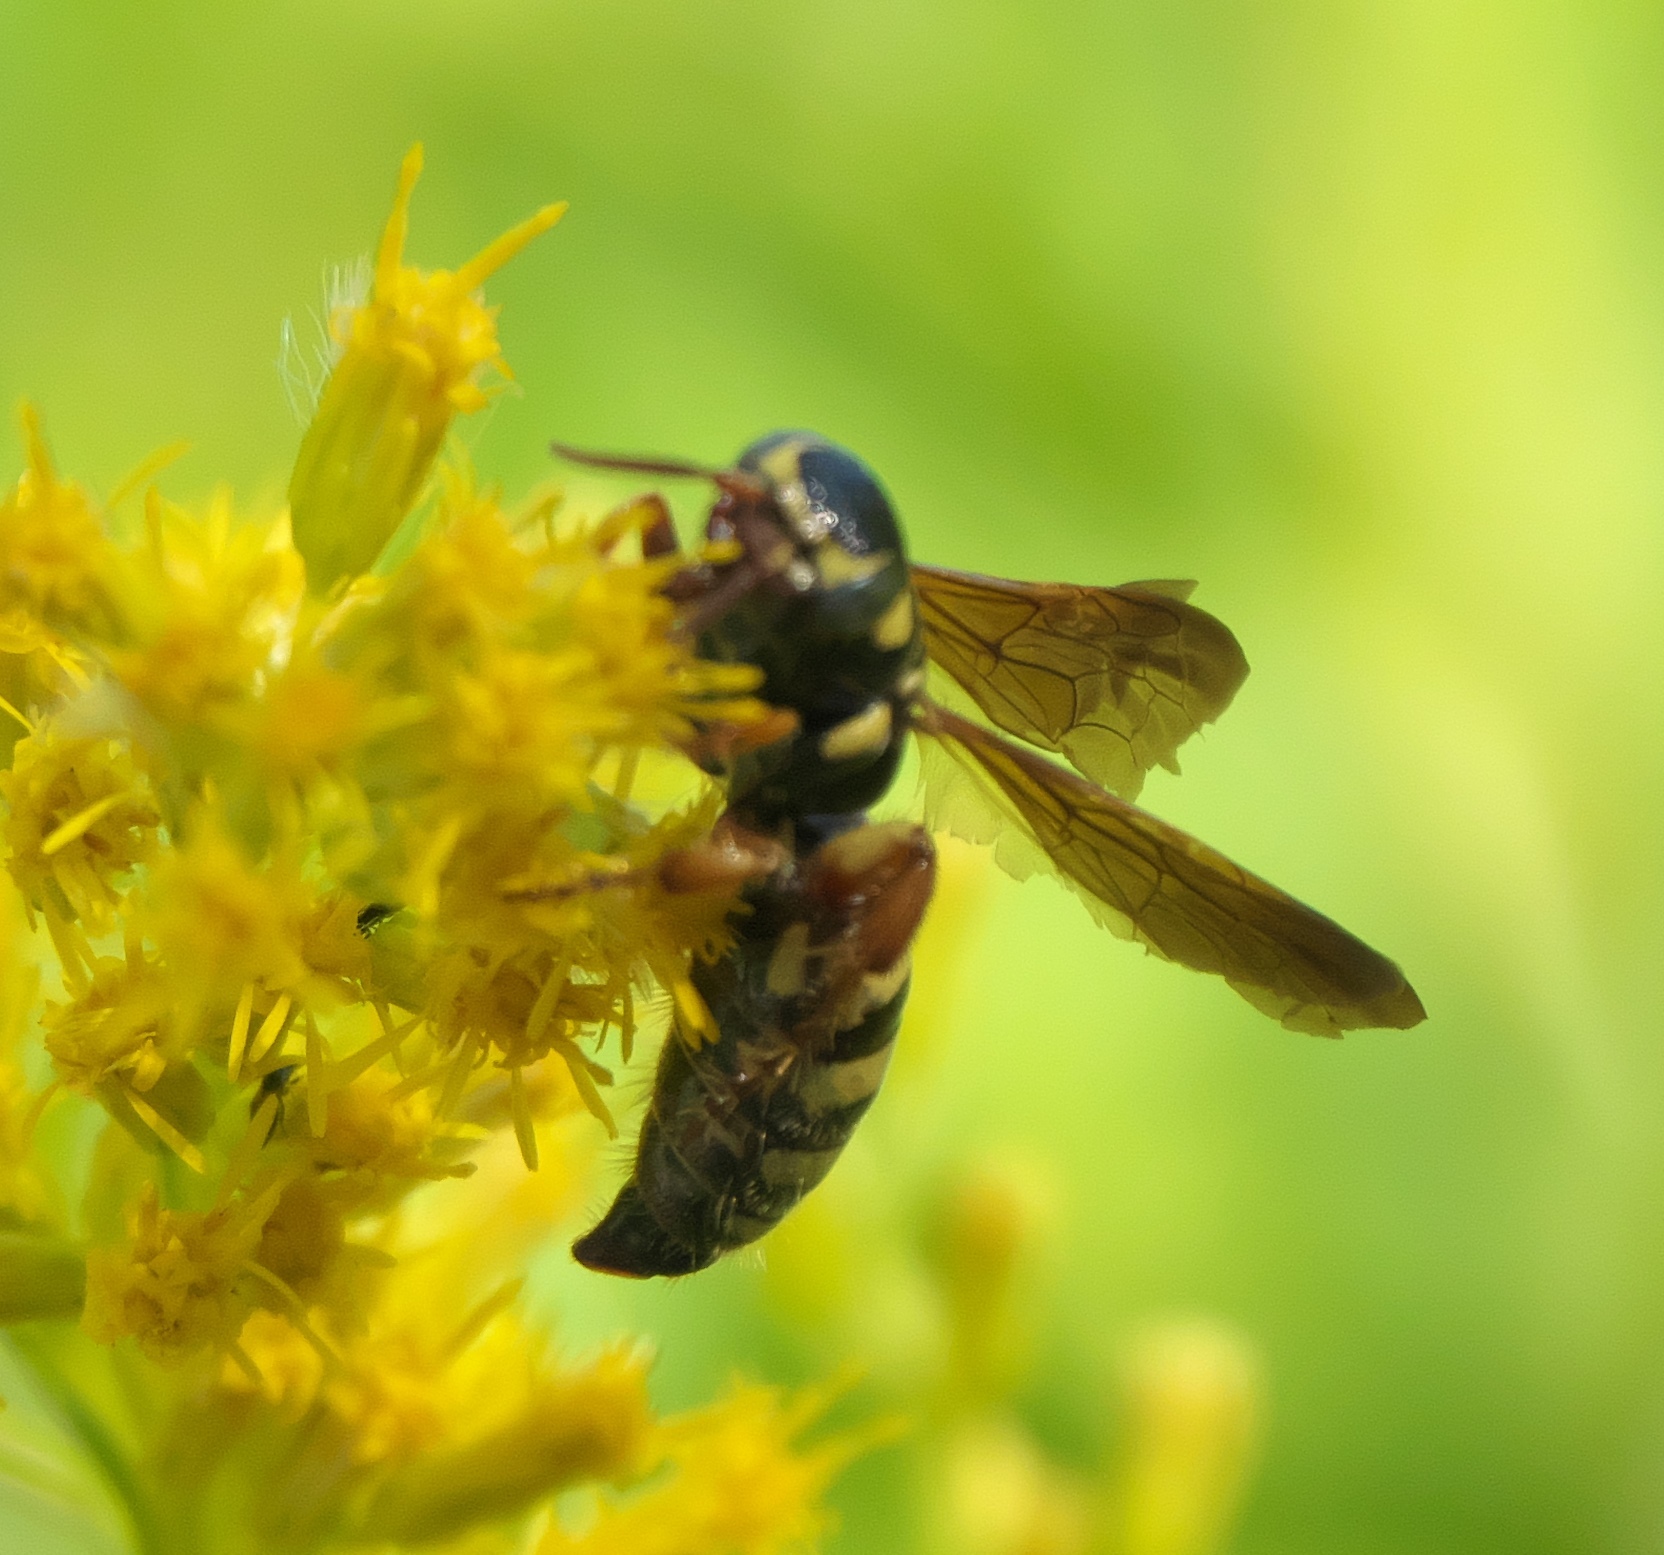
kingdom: Animalia
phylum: Arthropoda
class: Insecta
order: Hymenoptera
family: Tiphiidae
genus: Myzinum
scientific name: Myzinum quinquecinctum
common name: Five-banded thynnid wasp
